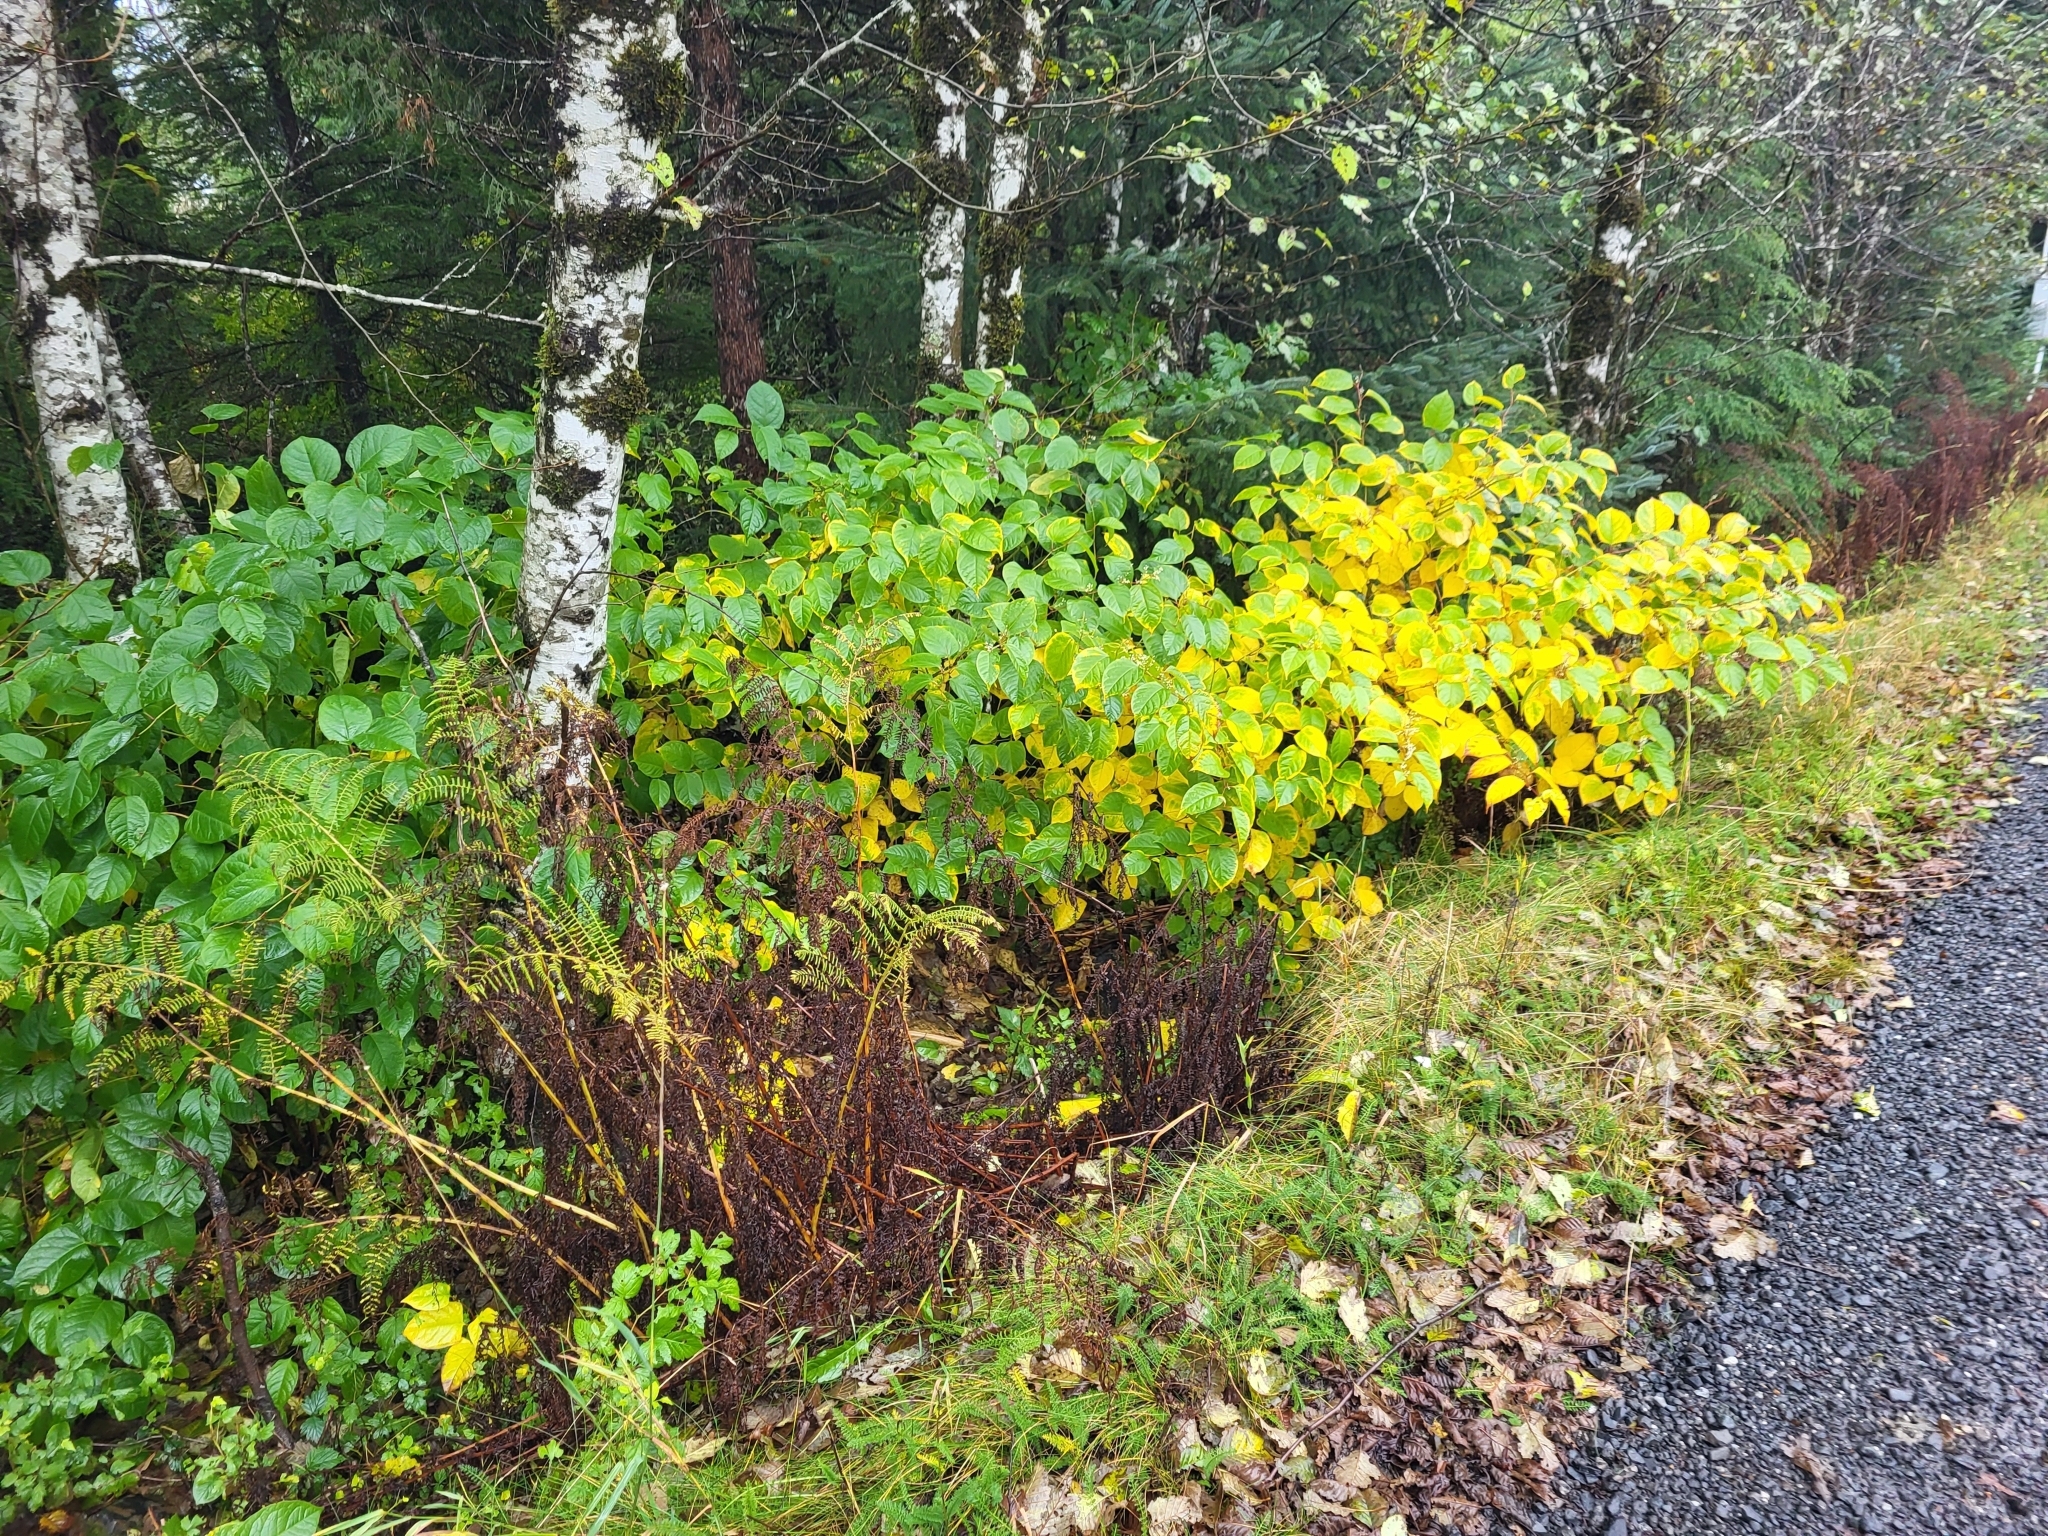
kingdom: Plantae
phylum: Tracheophyta
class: Magnoliopsida
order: Caryophyllales
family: Polygonaceae
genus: Reynoutria
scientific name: Reynoutria japonica
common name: Japanese knotweed
